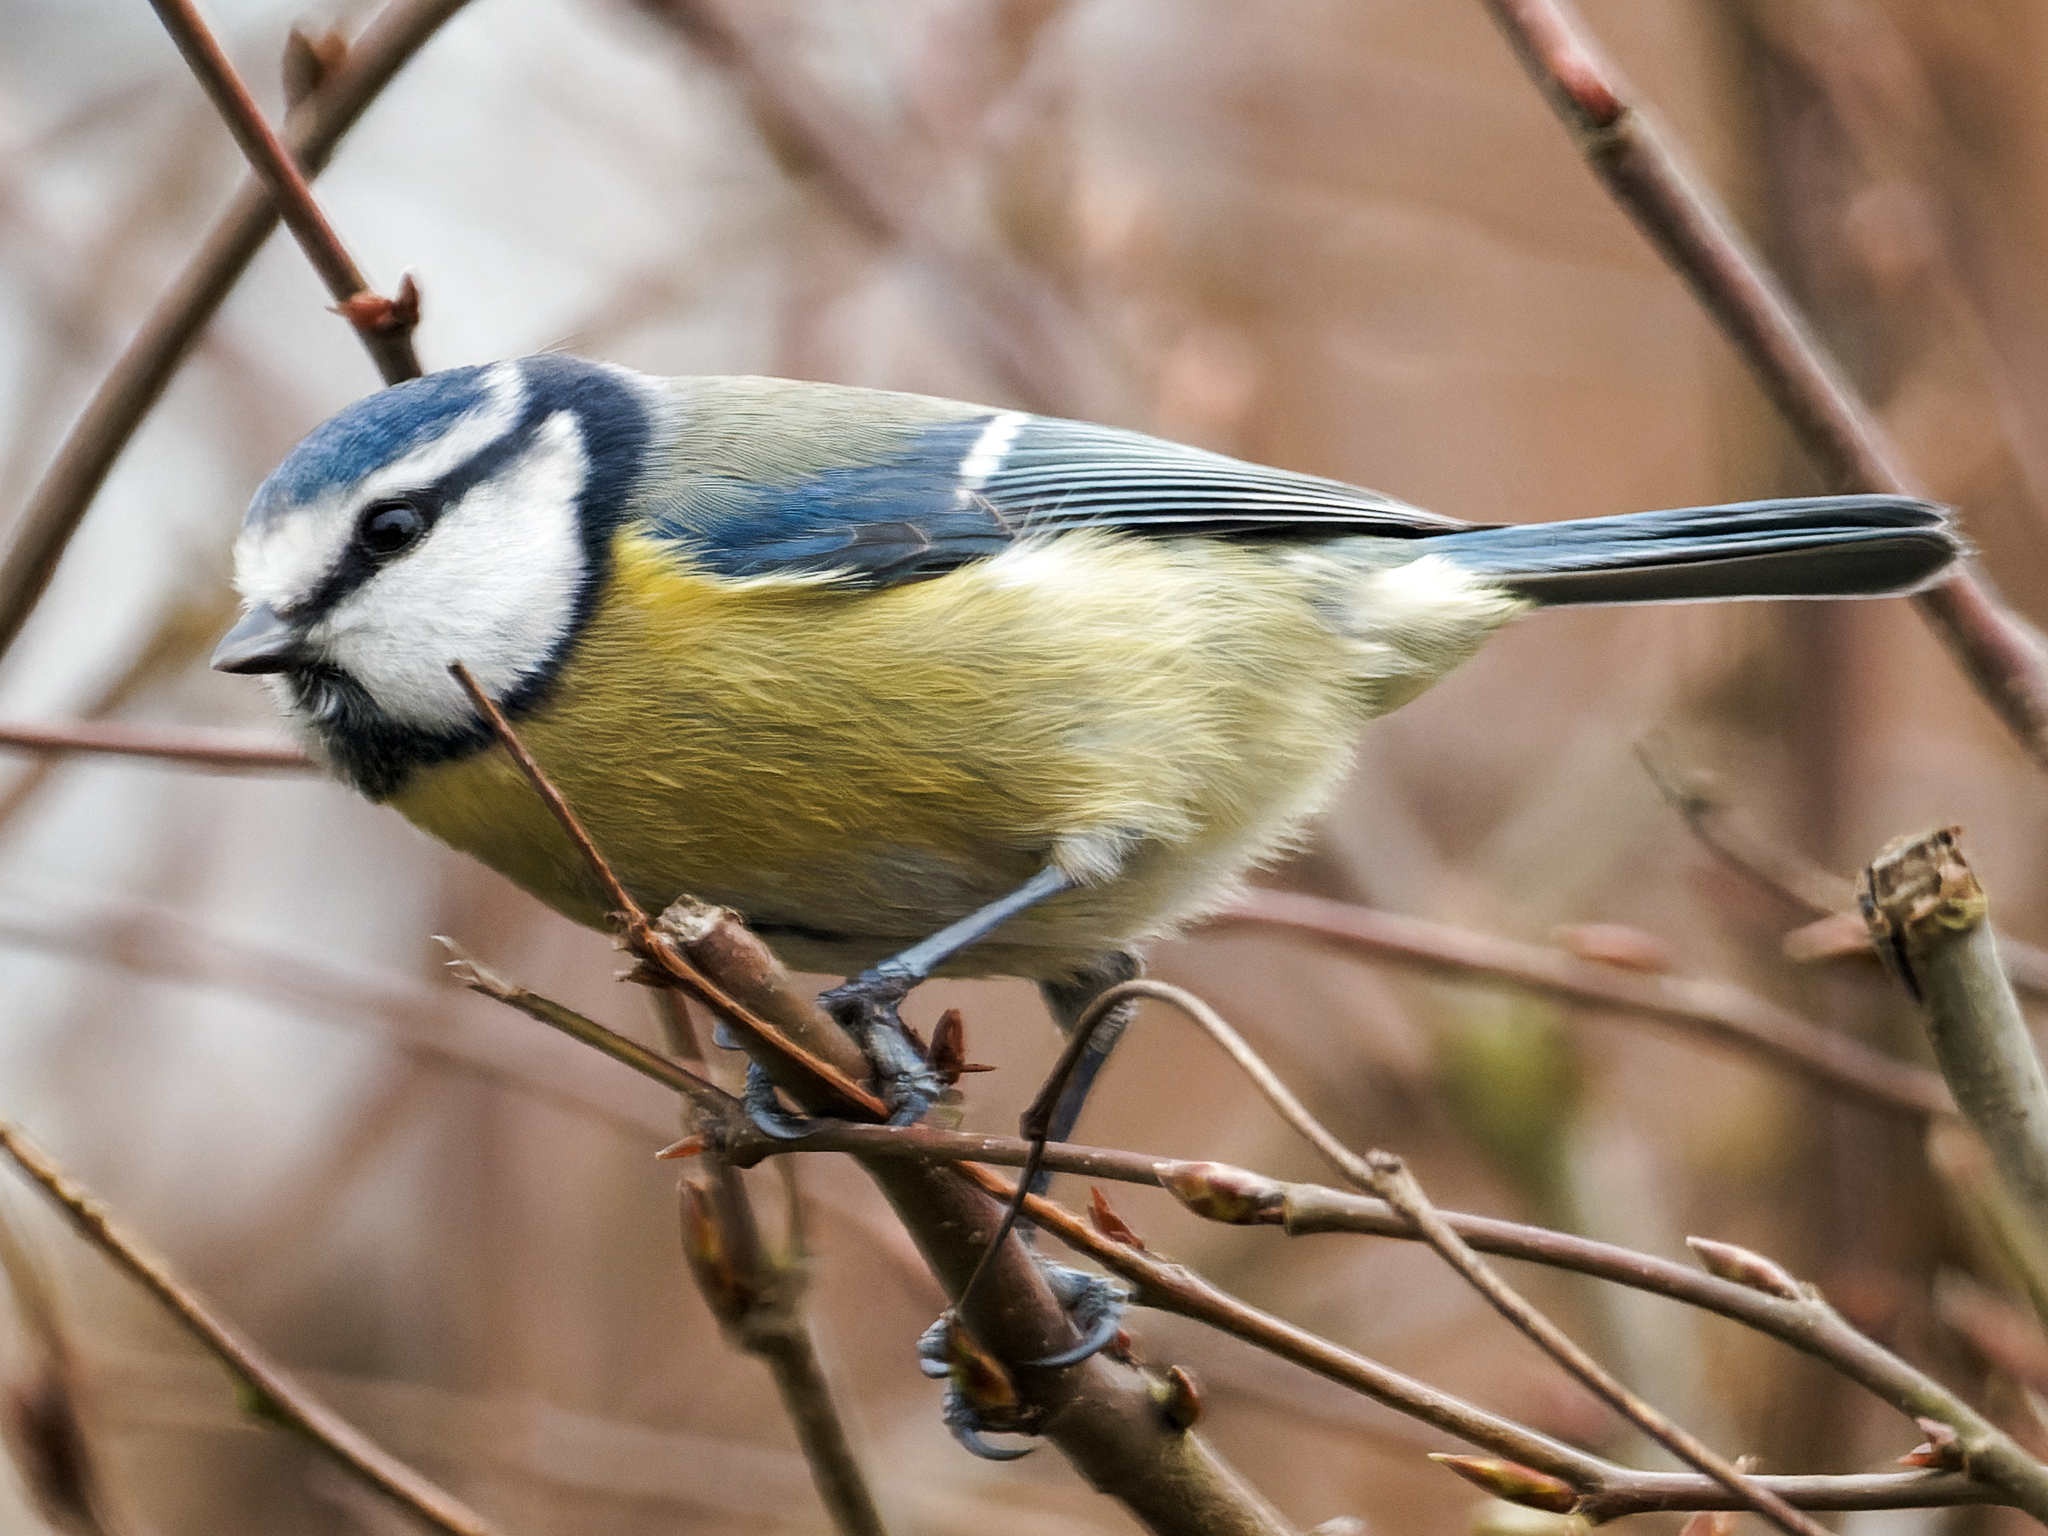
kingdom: Animalia
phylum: Chordata
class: Aves
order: Passeriformes
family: Paridae
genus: Cyanistes
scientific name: Cyanistes caeruleus
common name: Eurasian blue tit
